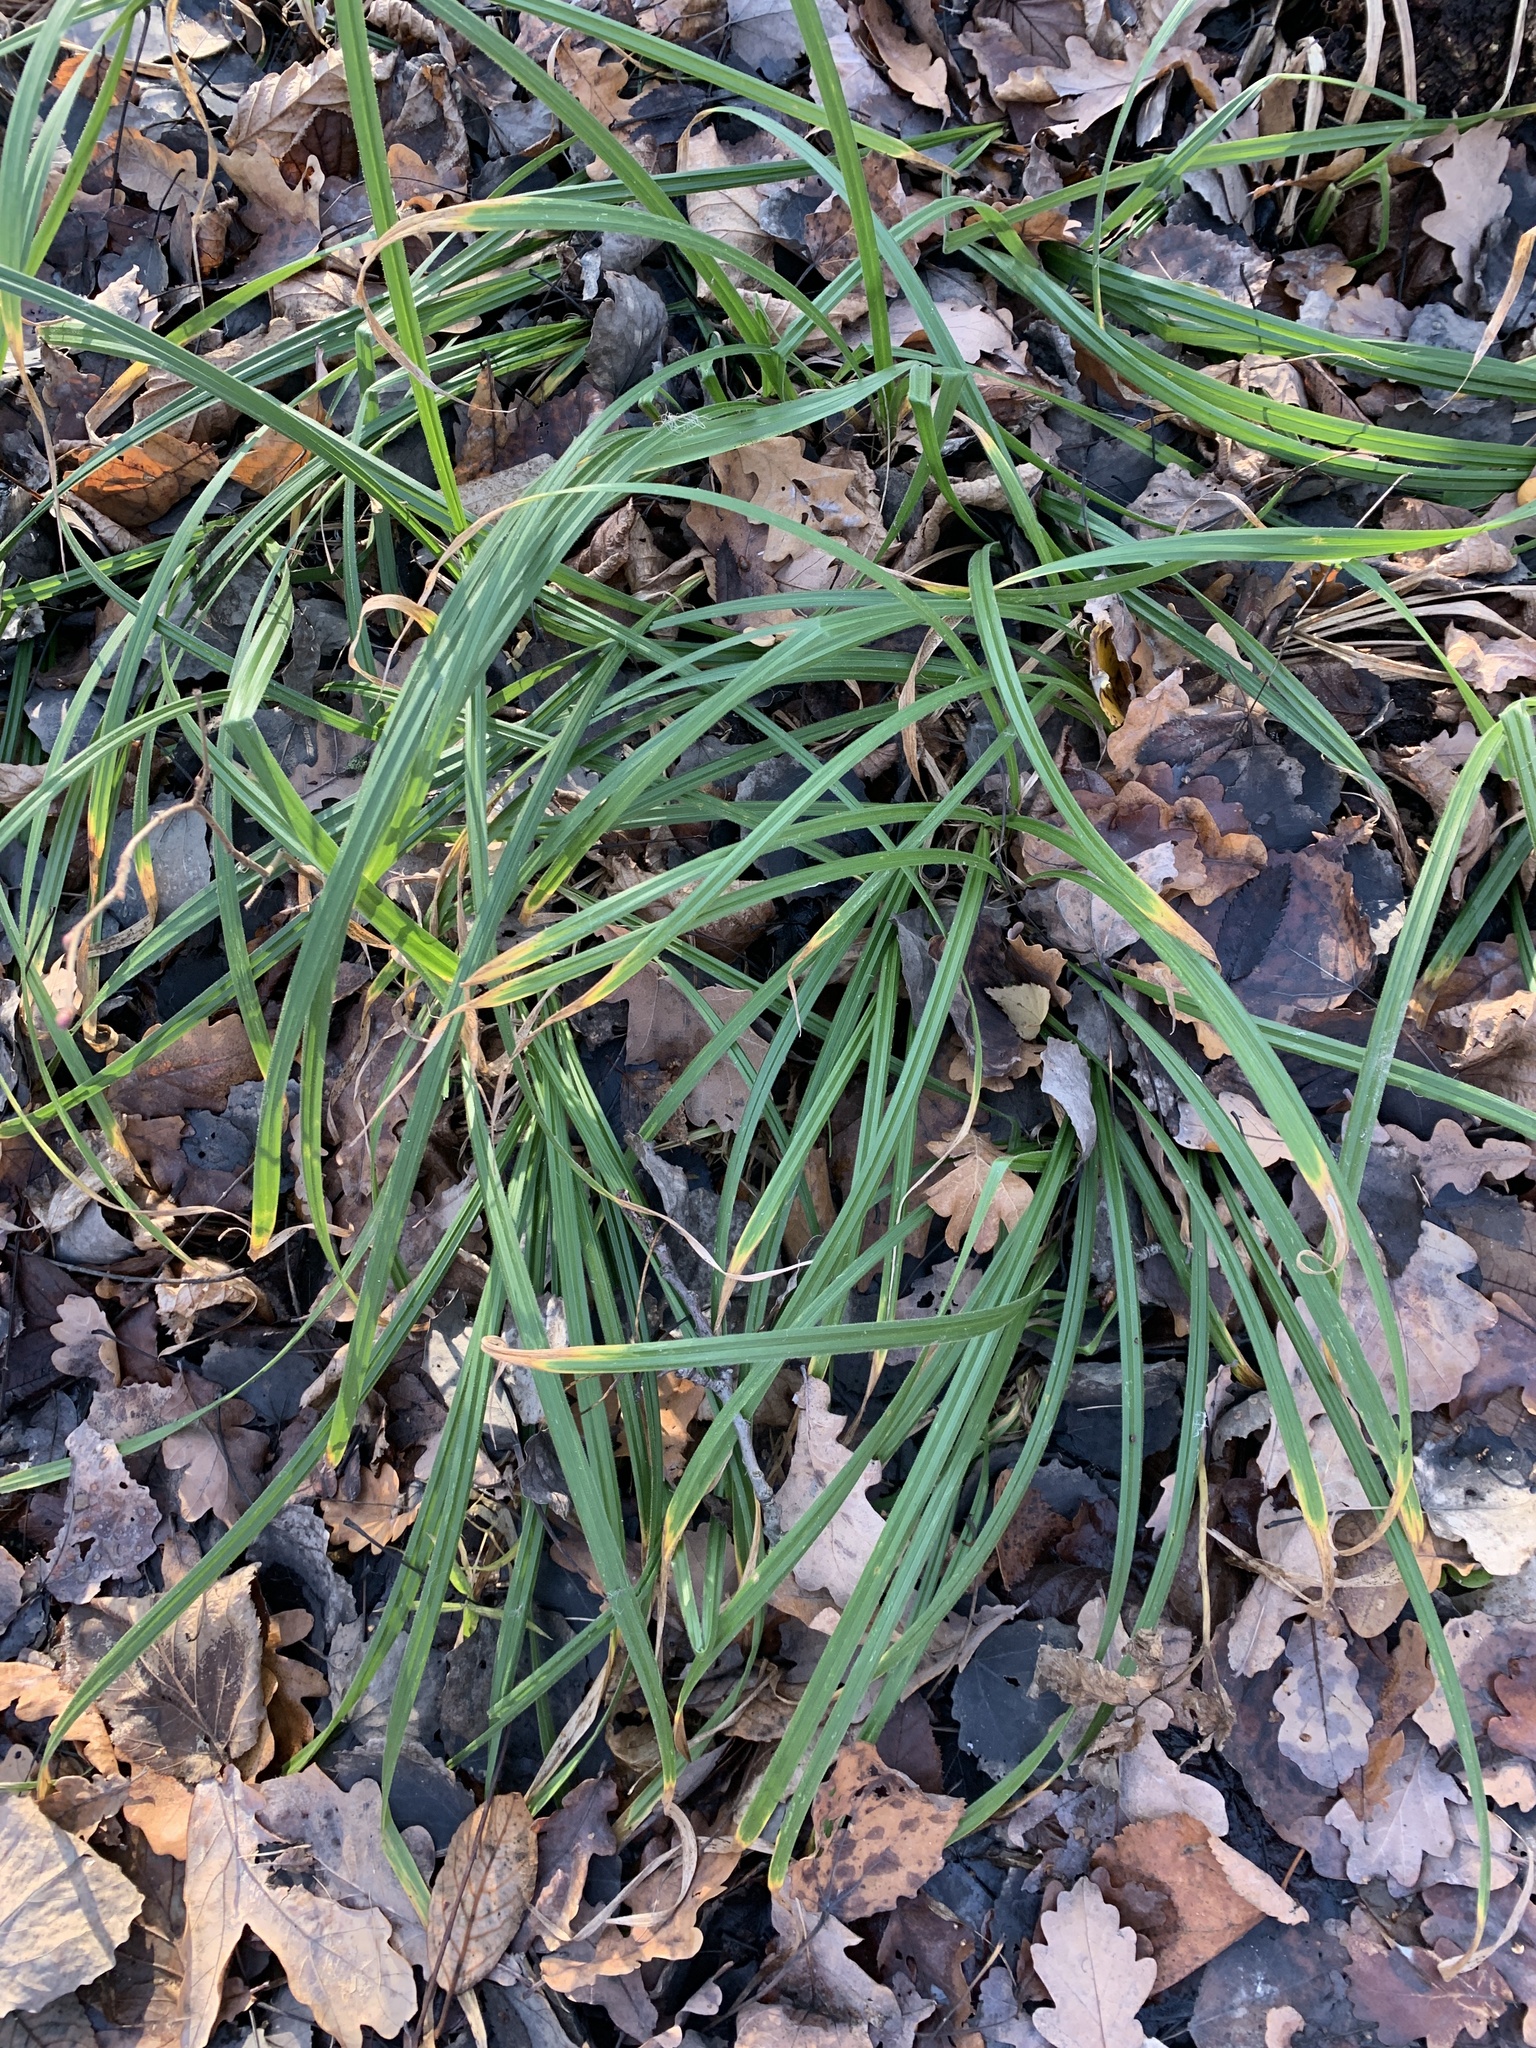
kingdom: Plantae
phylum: Tracheophyta
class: Liliopsida
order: Poales
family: Cyperaceae
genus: Carex
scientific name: Carex pilosa
